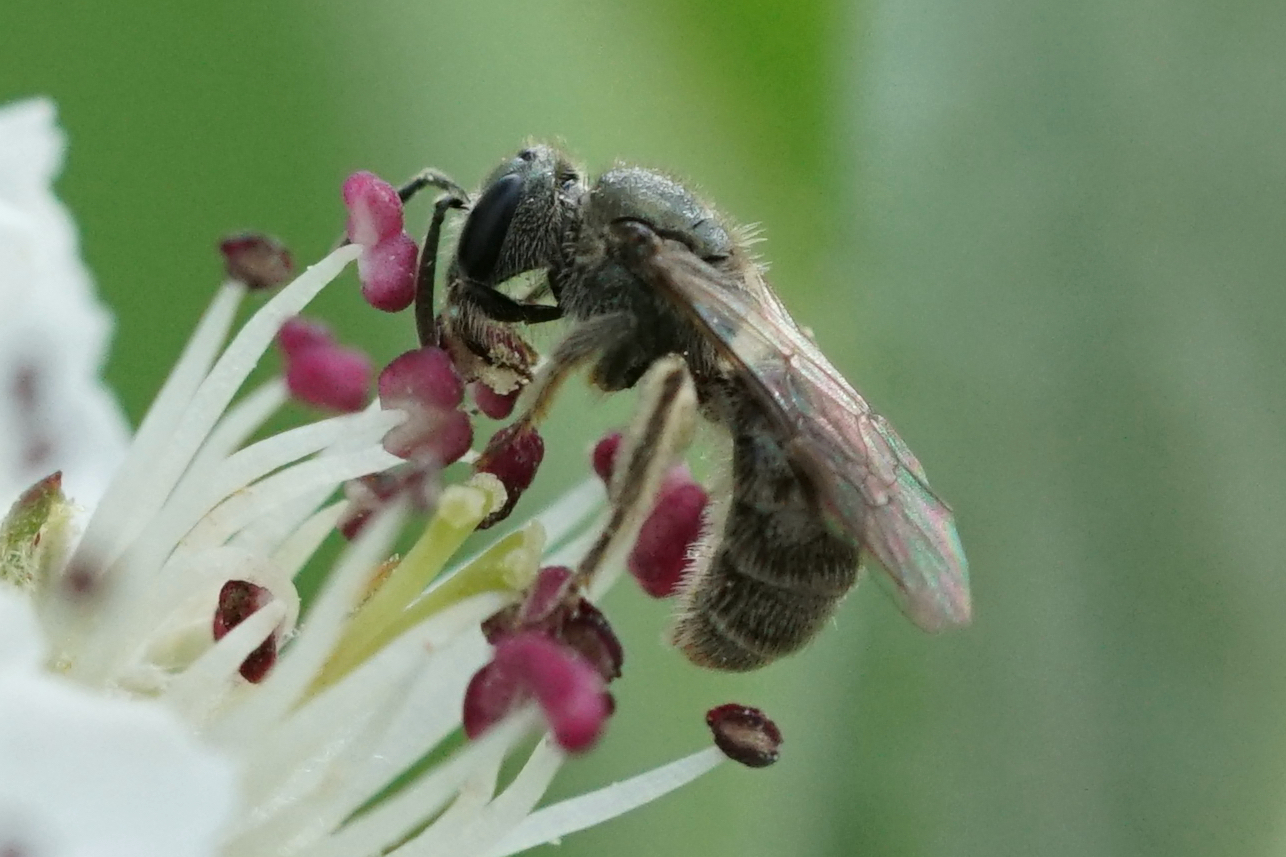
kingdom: Animalia
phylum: Arthropoda
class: Insecta
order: Hymenoptera
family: Halictidae
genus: Dialictus
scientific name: Dialictus
